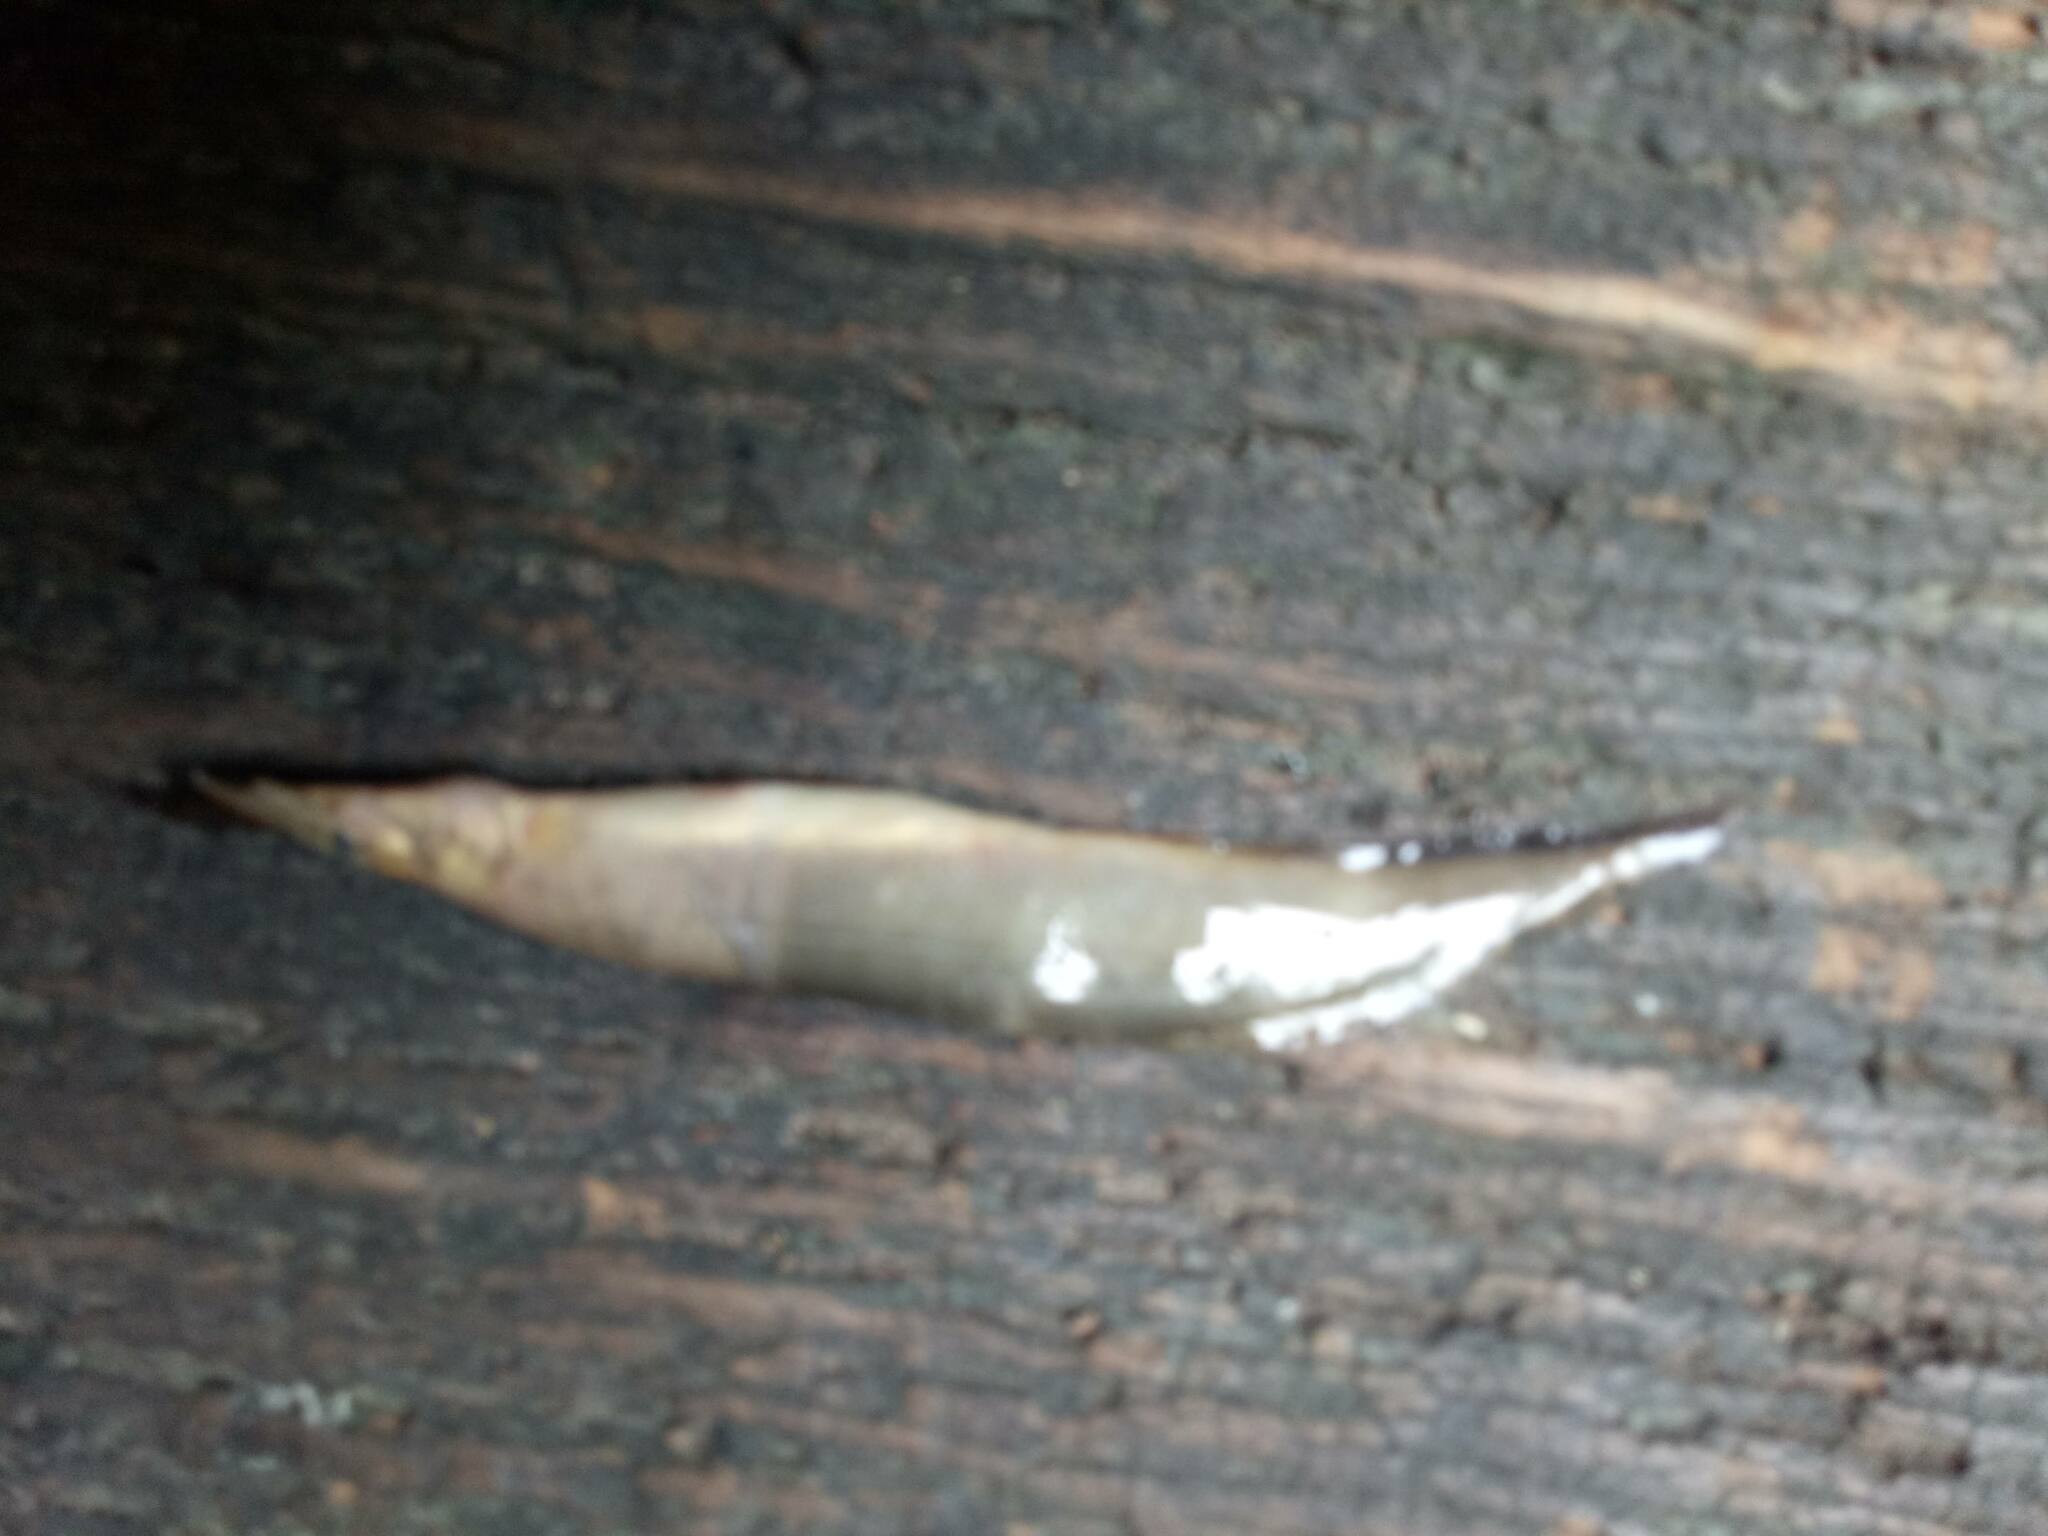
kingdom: Animalia
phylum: Chordata
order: Synbranchiformes
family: Mastacembelidae
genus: Macrognathus
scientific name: Macrognathus siamensis
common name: Spotfin spiny eel
